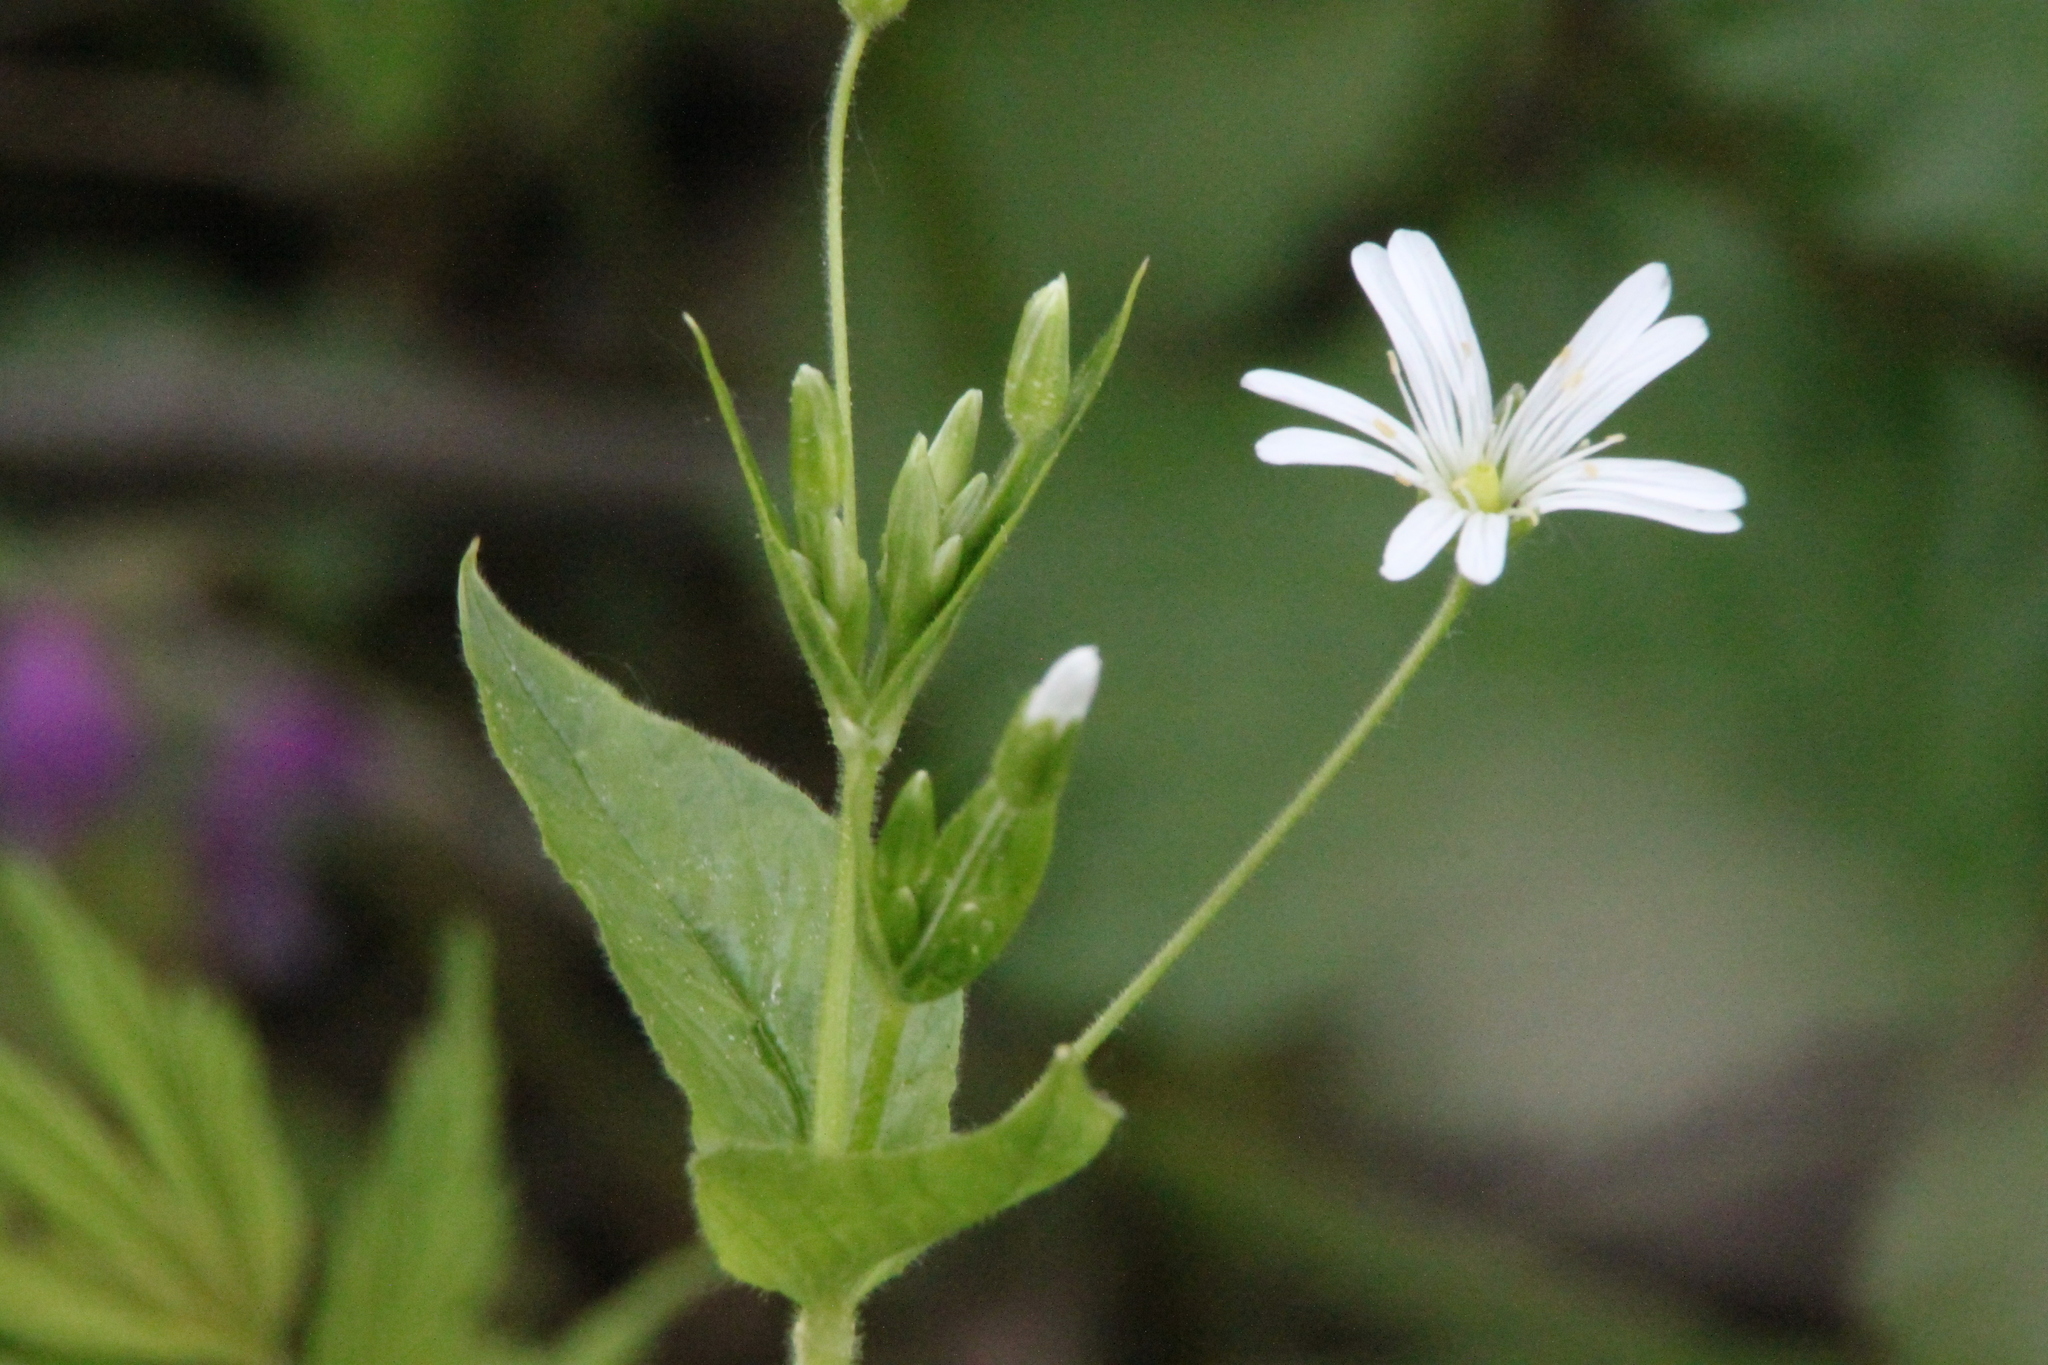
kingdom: Plantae
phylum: Tracheophyta
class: Magnoliopsida
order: Caryophyllales
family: Caryophyllaceae
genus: Stellaria
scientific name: Stellaria nemorum
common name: Wood stitchwort
